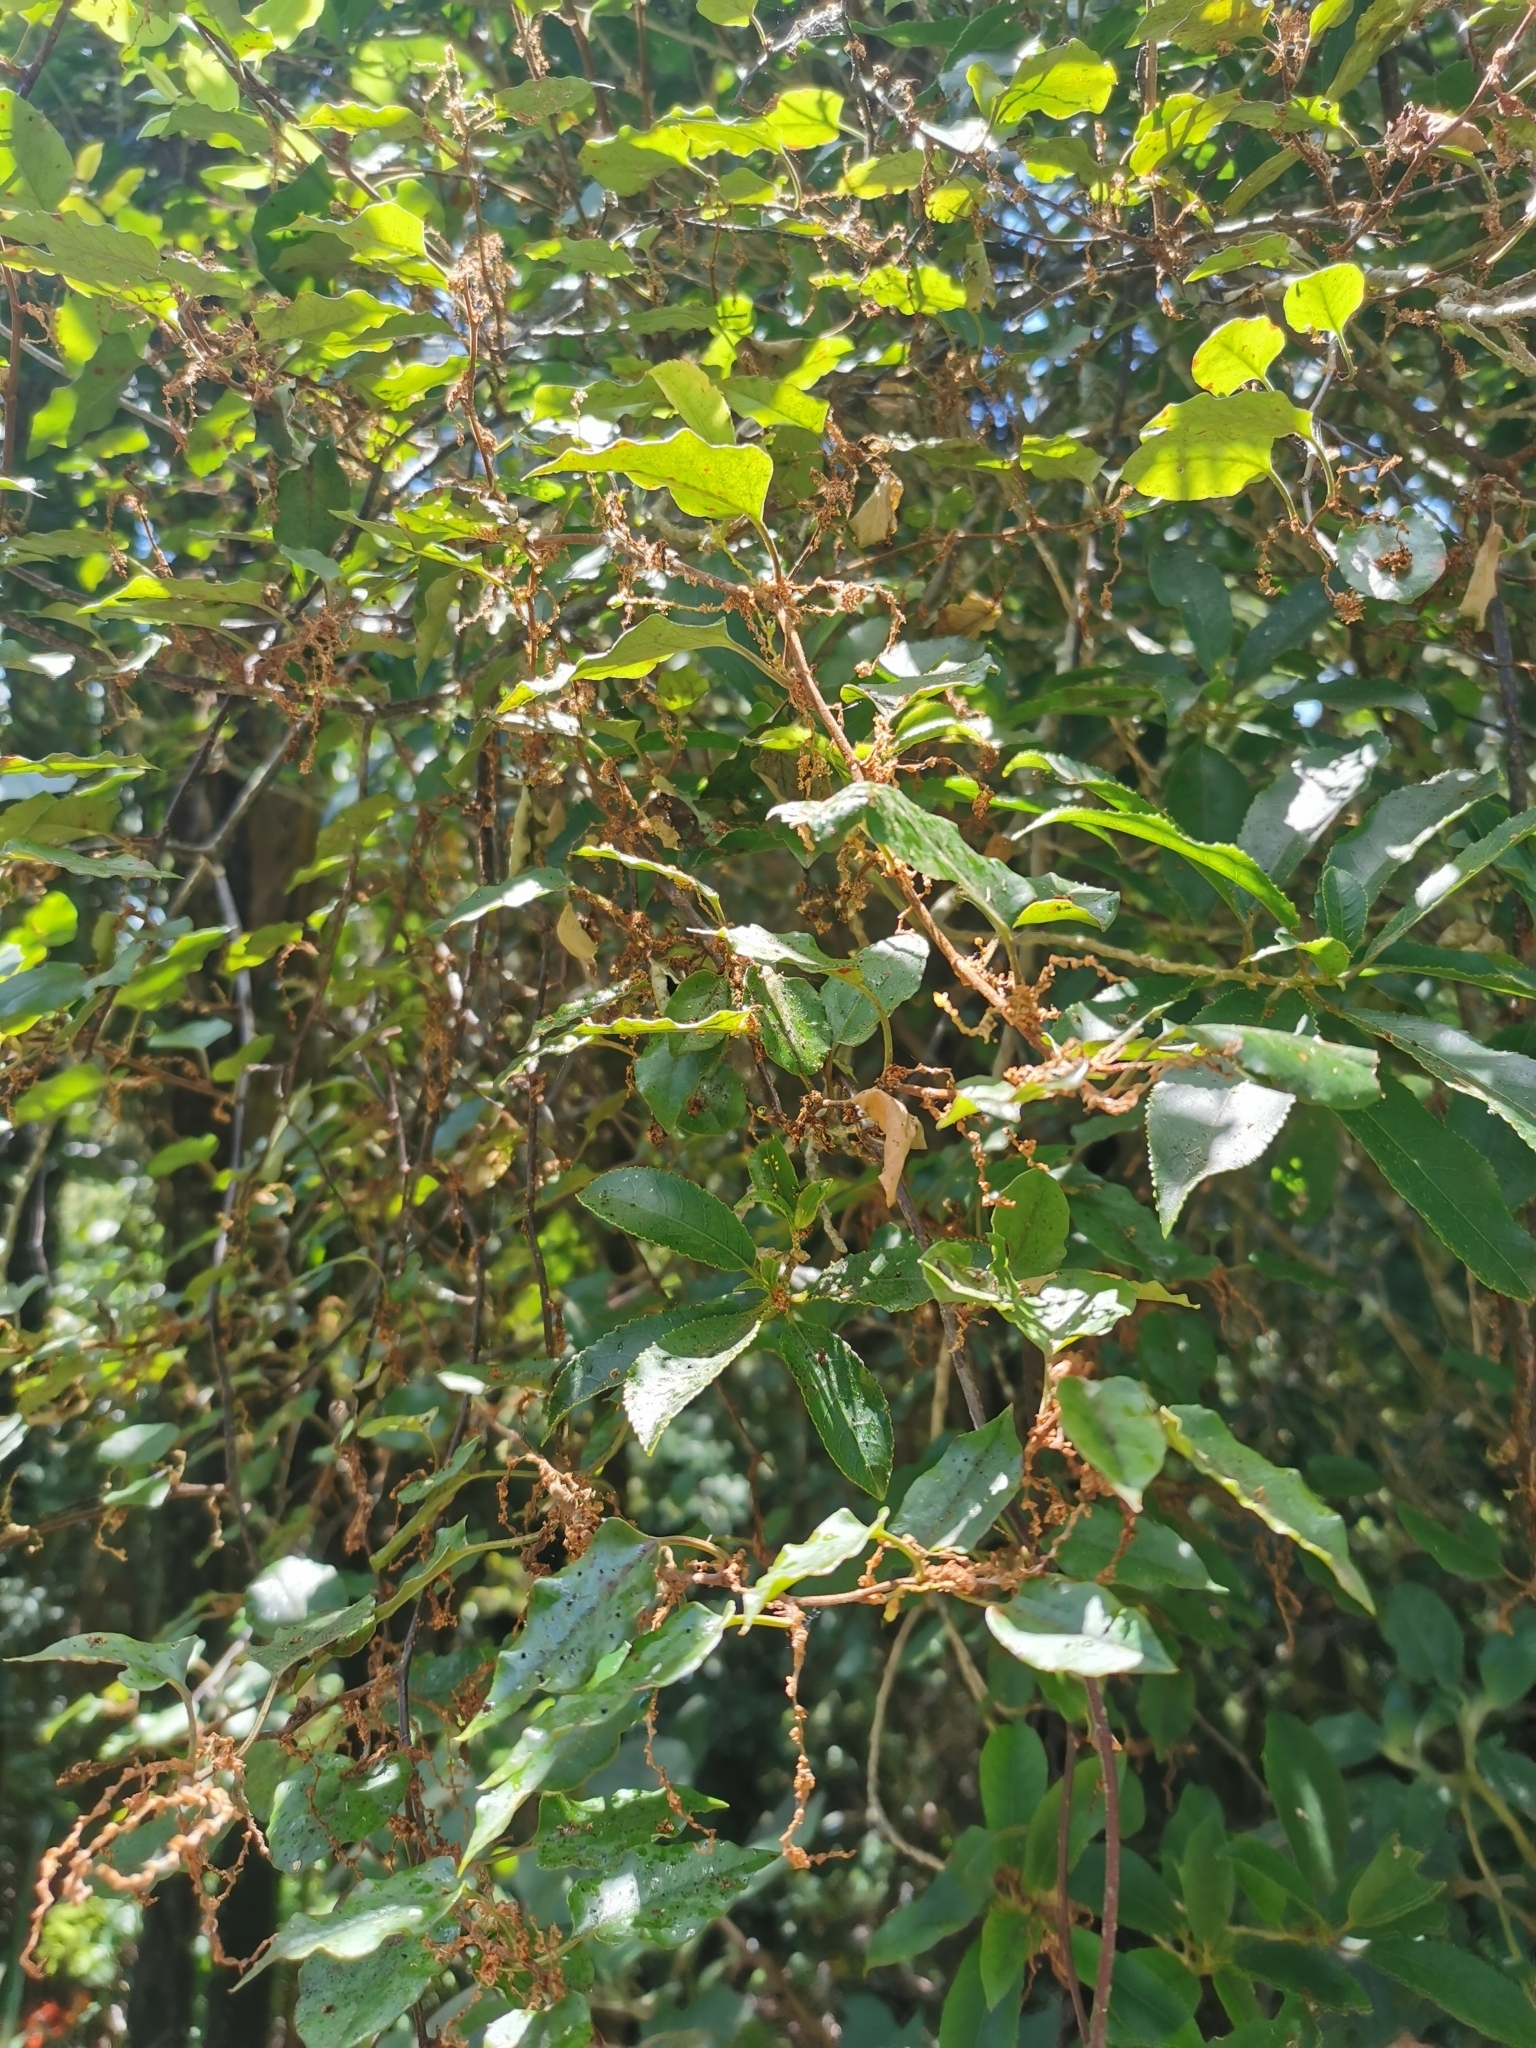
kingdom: Plantae
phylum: Tracheophyta
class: Magnoliopsida
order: Caryophyllales
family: Polygonaceae
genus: Muehlenbeckia
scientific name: Muehlenbeckia australis
